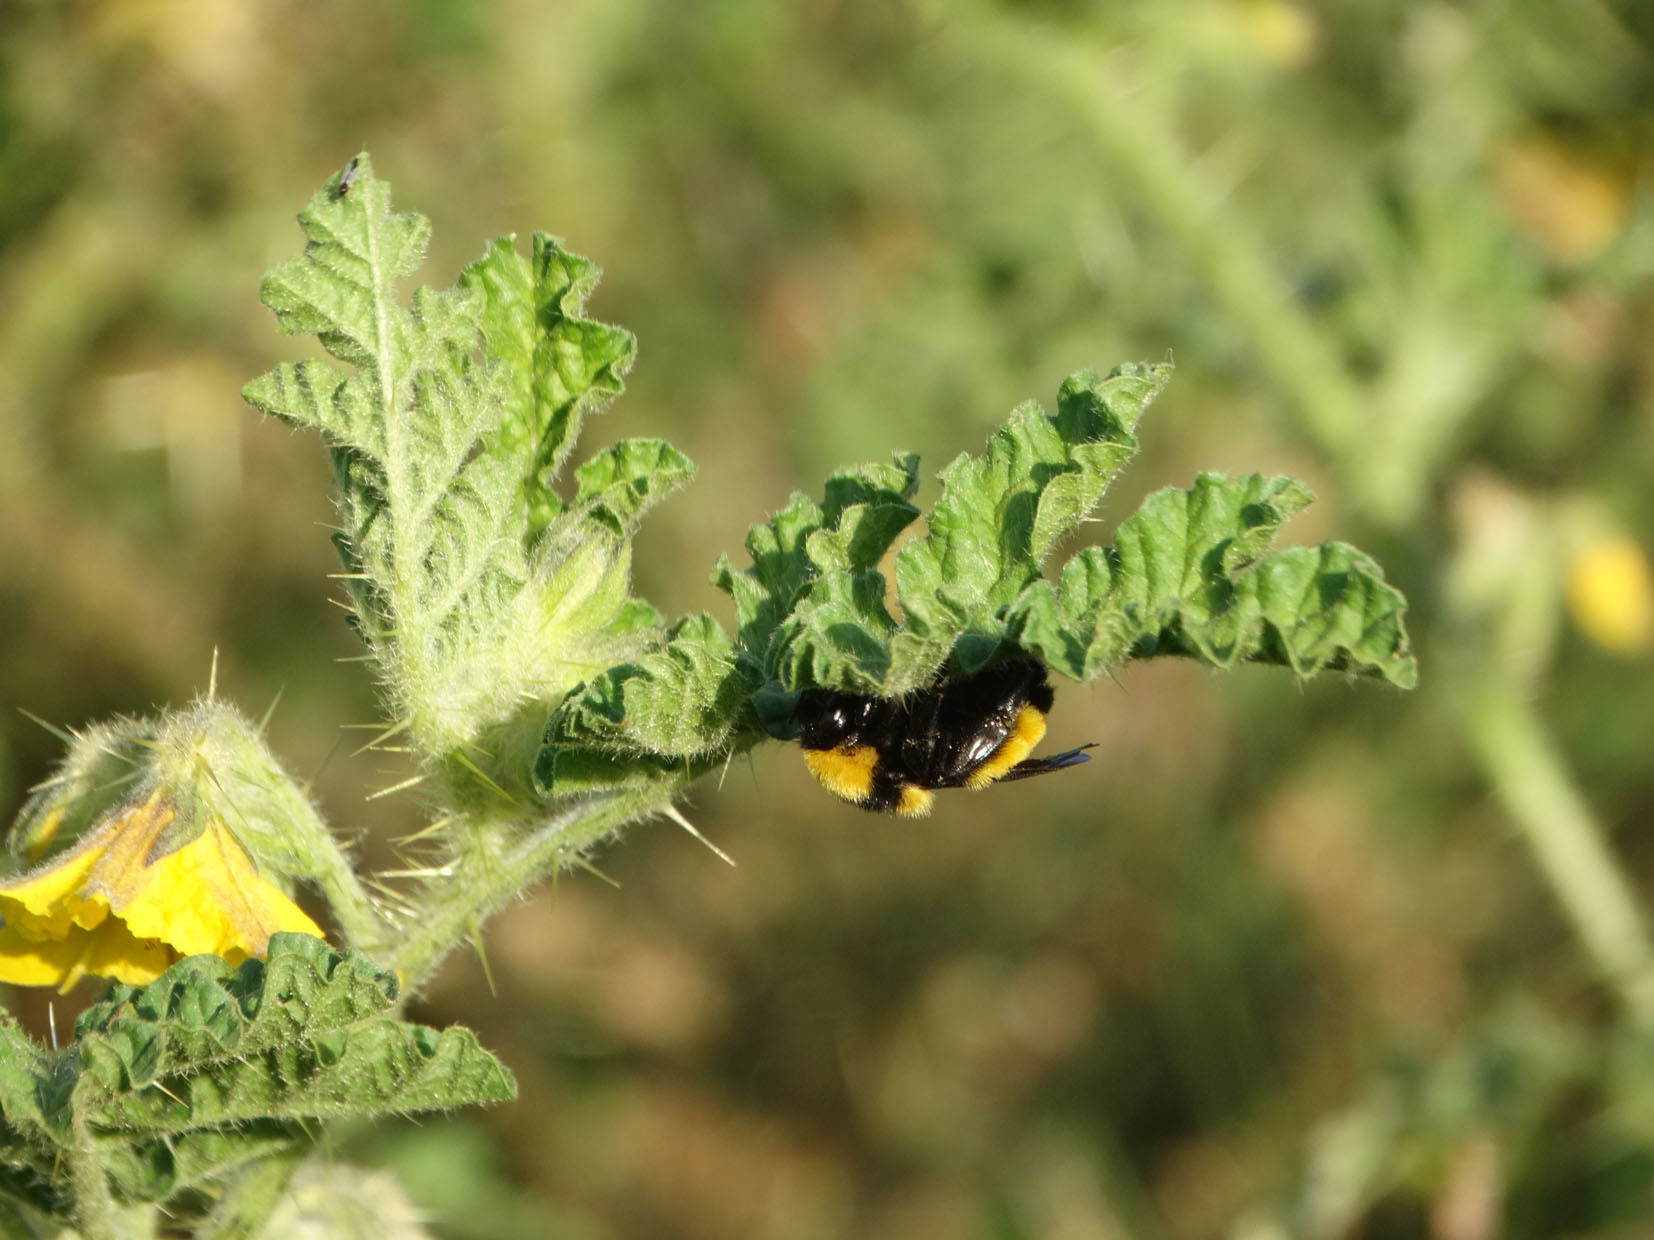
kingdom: Animalia
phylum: Arthropoda
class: Insecta
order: Hymenoptera
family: Apidae
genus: Bombus
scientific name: Bombus sonorus
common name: Sonoran bumble bee
